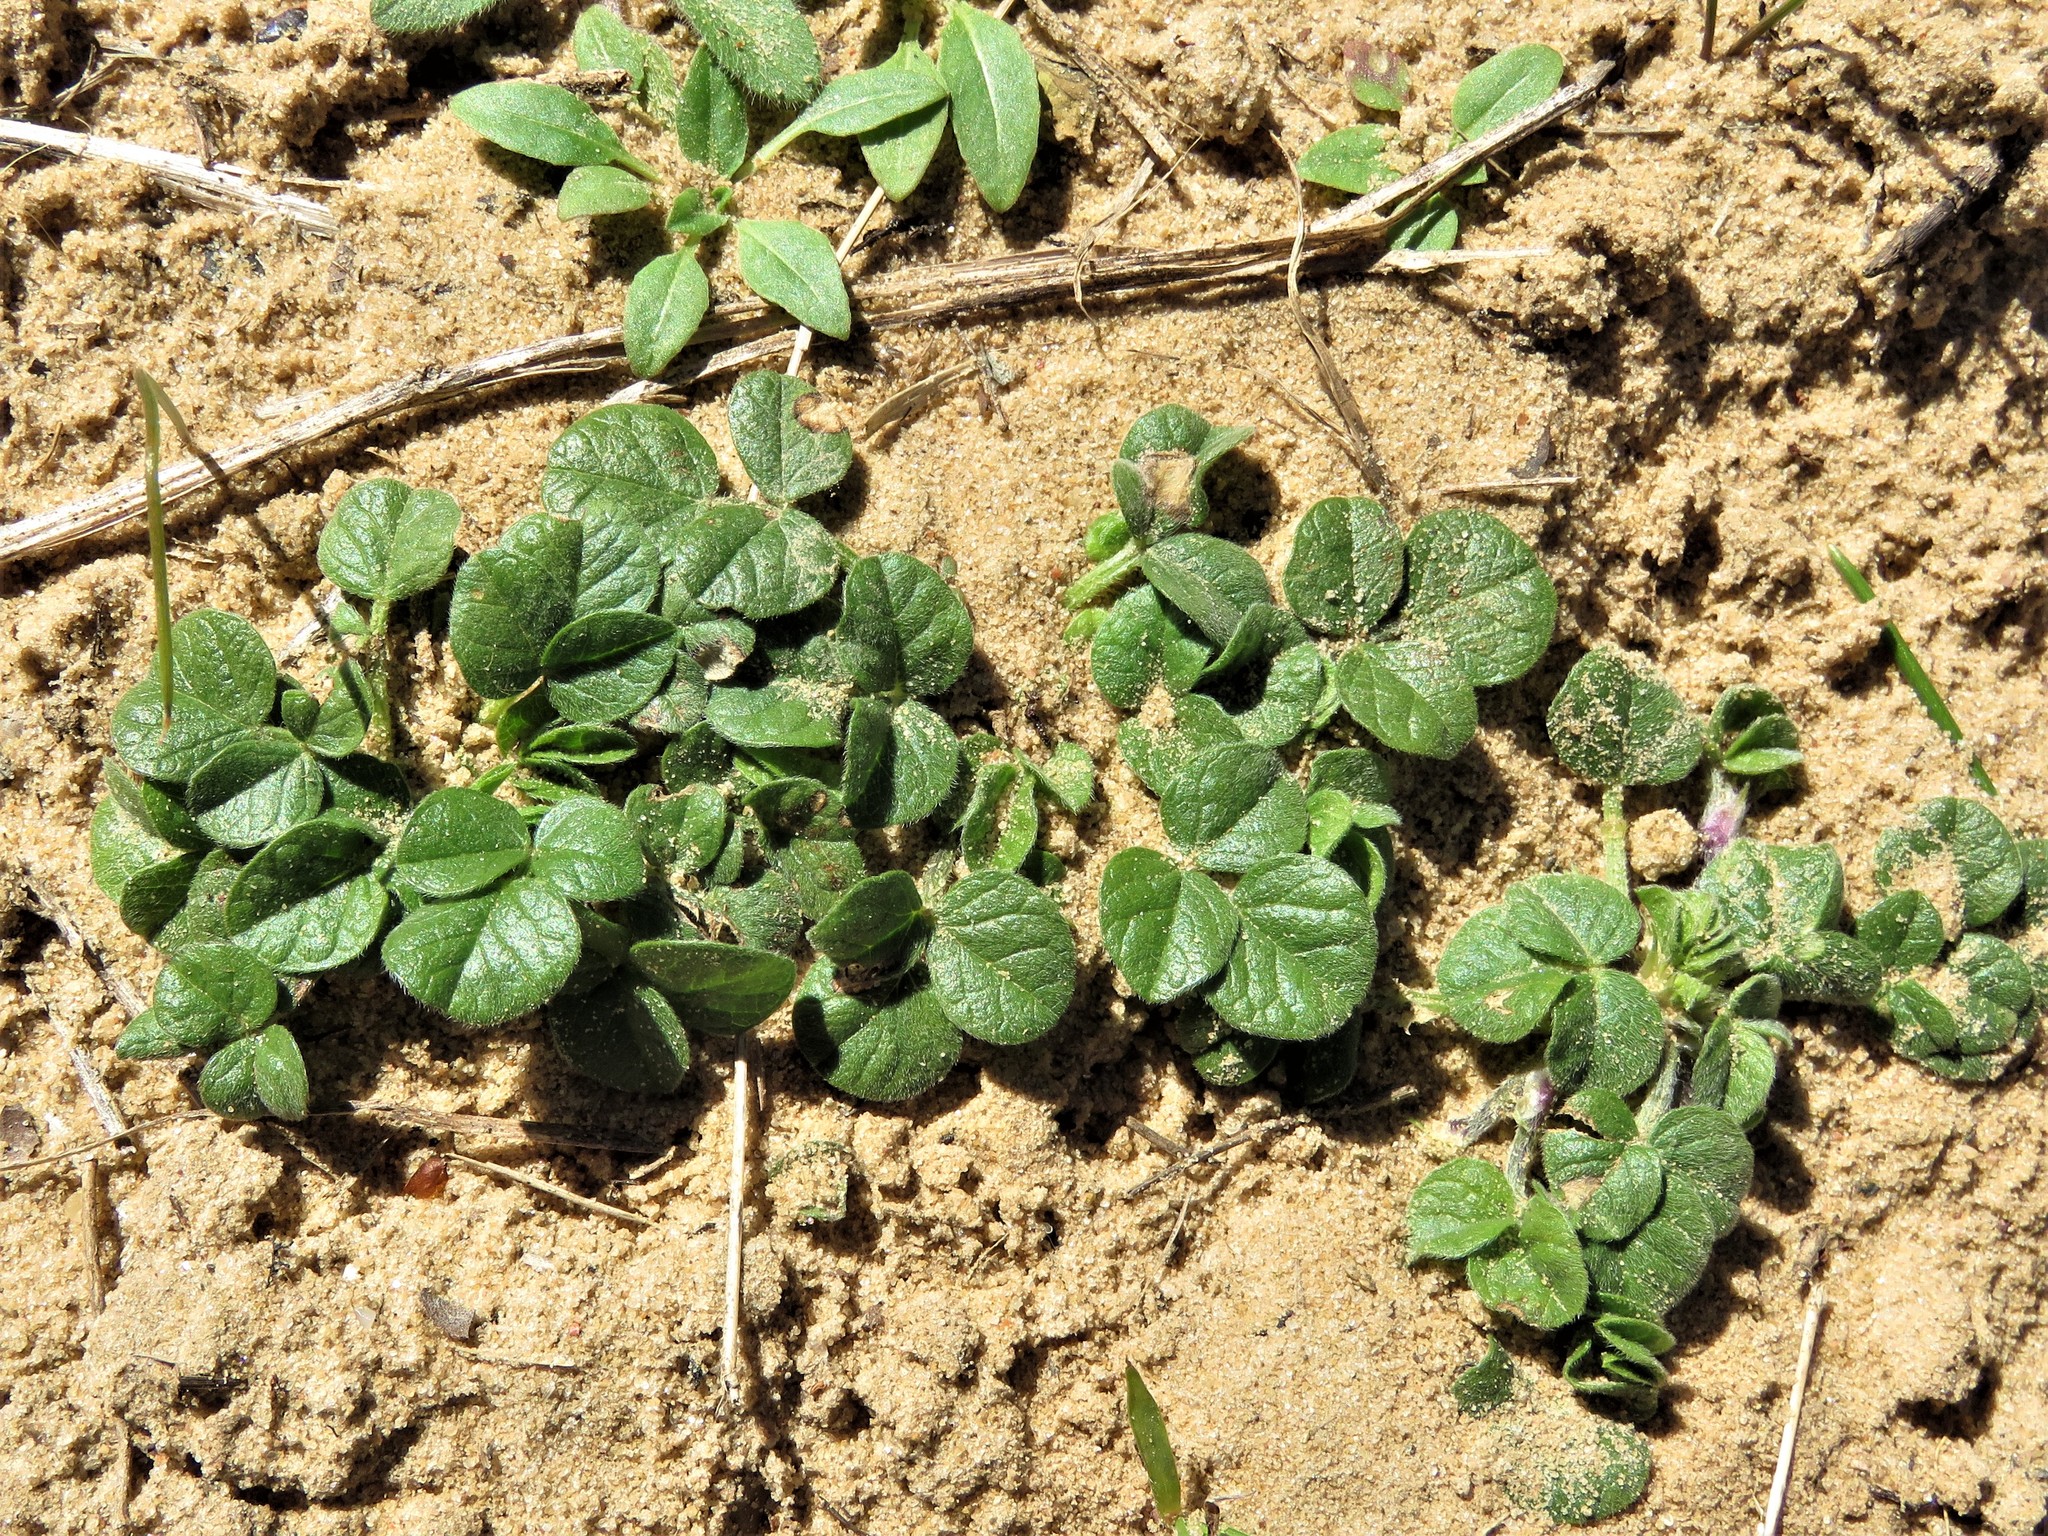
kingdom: Plantae
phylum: Tracheophyta
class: Magnoliopsida
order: Fabales
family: Fabaceae
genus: Pediomelum
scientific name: Pediomelum rhombifolium
